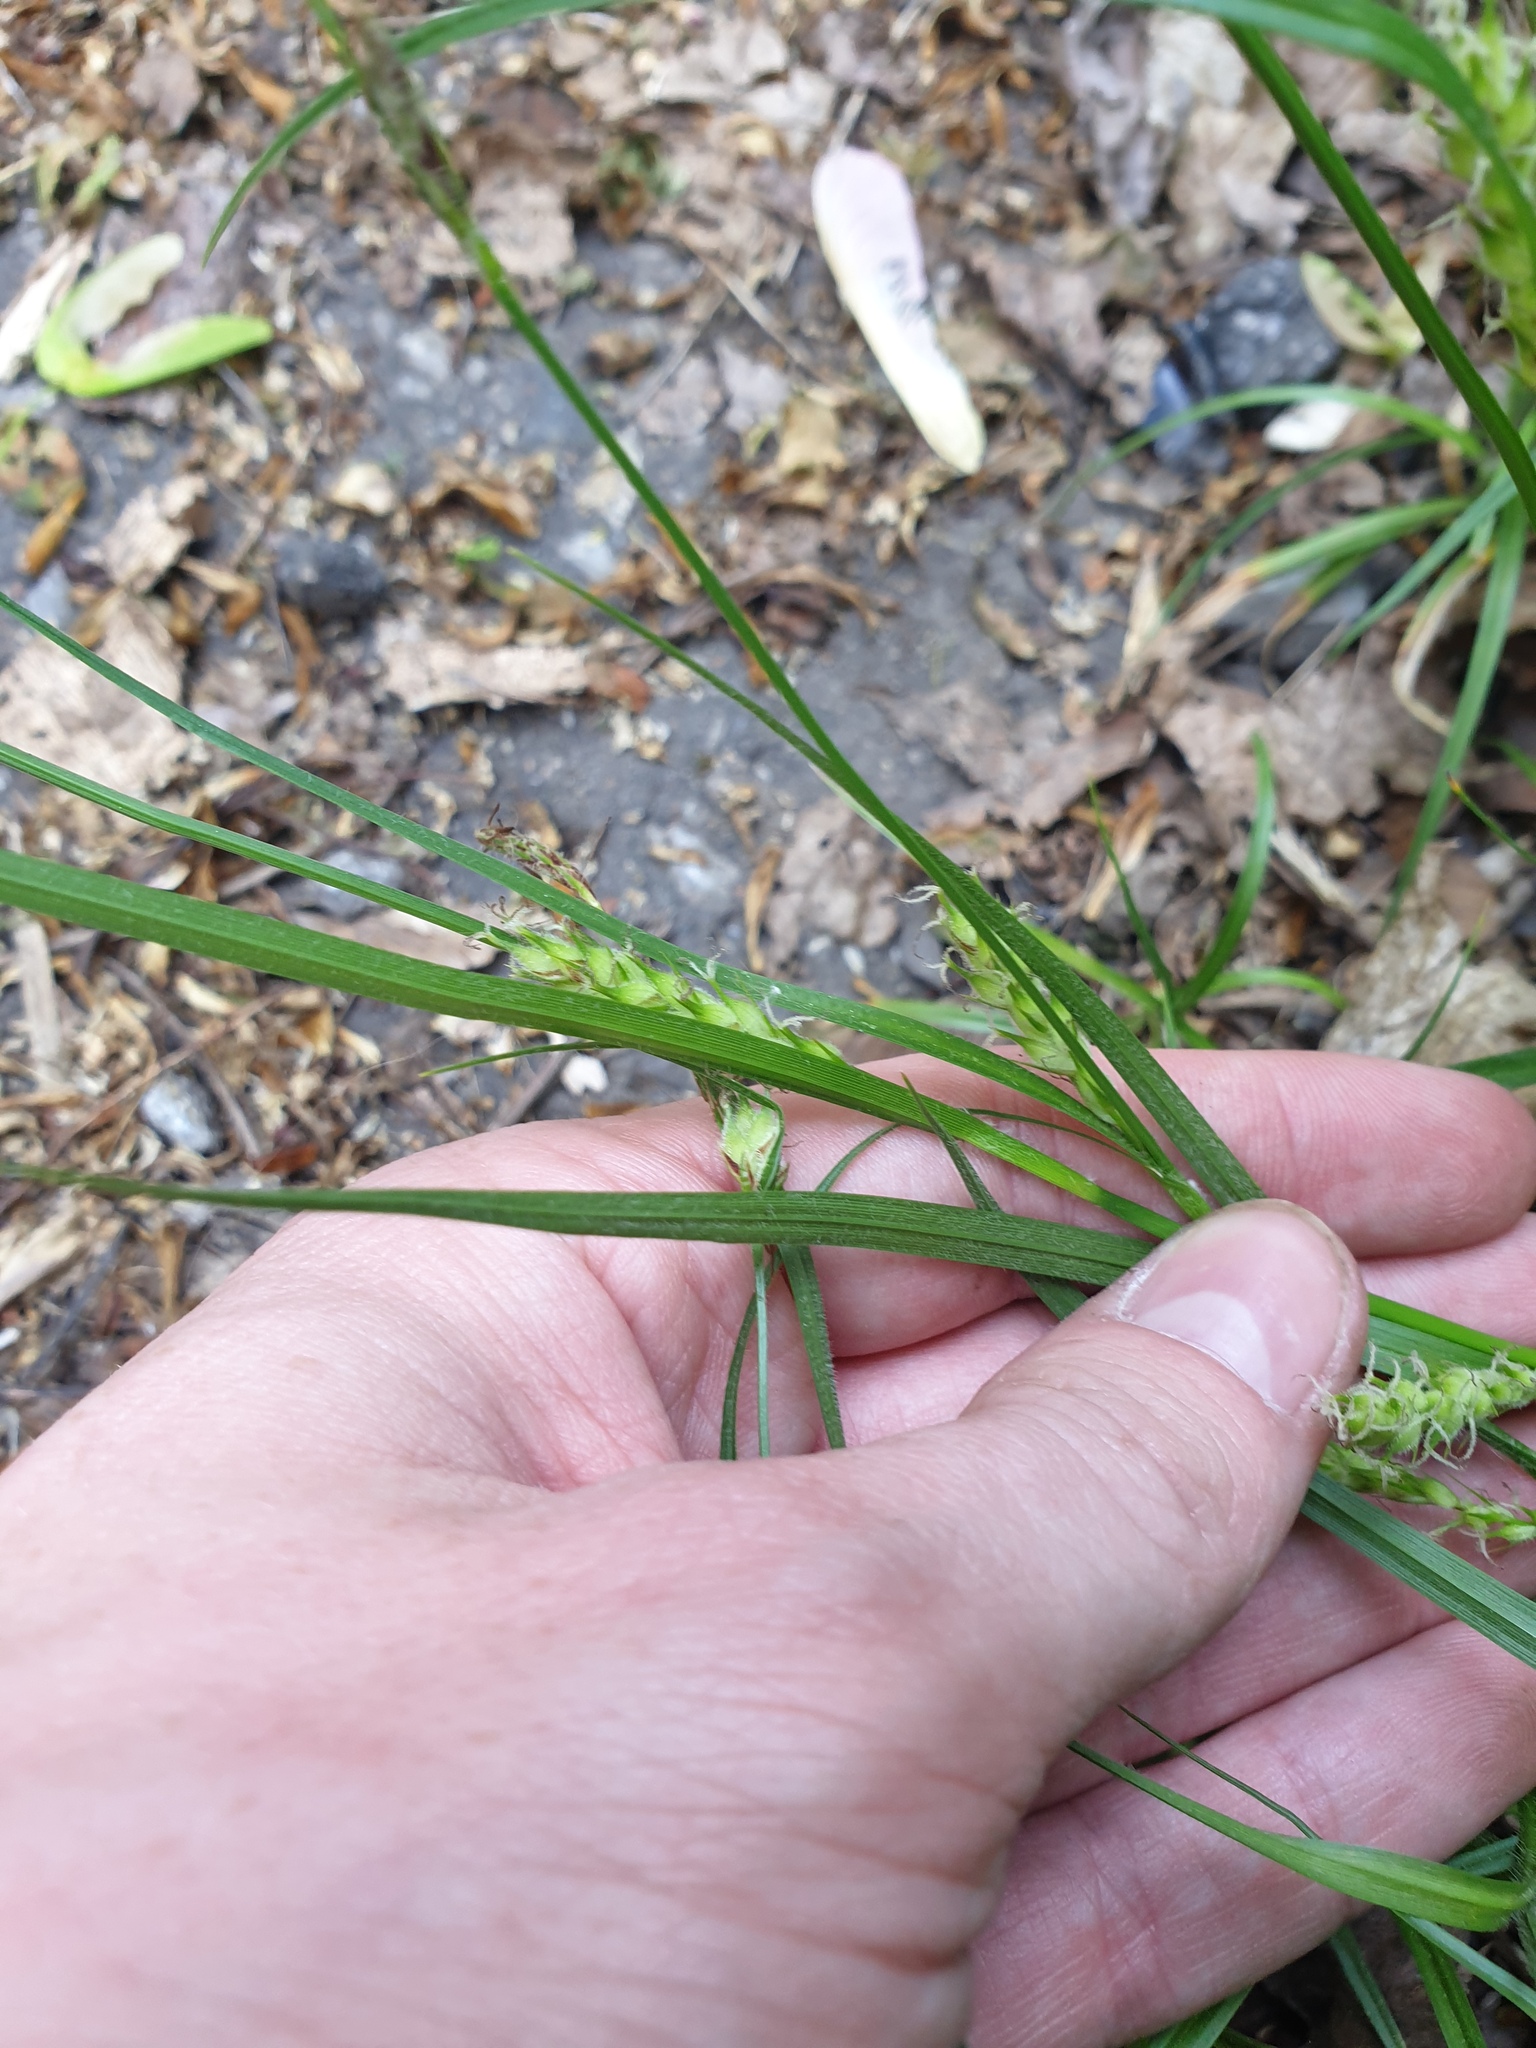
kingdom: Plantae
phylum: Tracheophyta
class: Liliopsida
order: Poales
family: Cyperaceae
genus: Carex
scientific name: Carex hirta
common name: Hairy sedge
